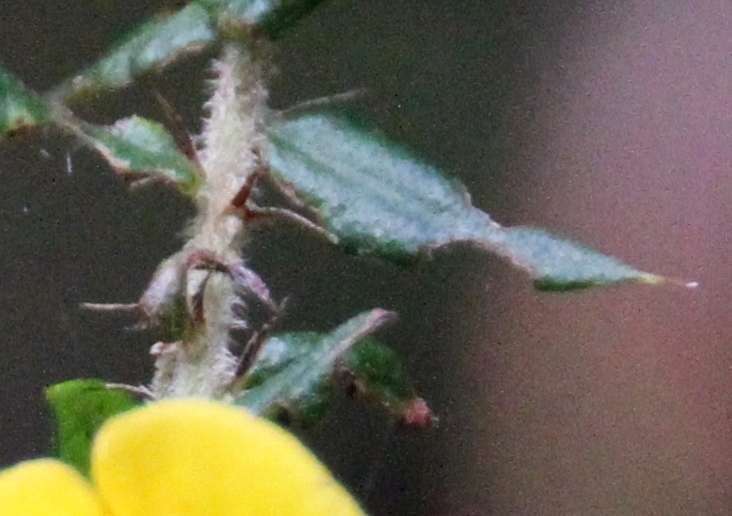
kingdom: Plantae
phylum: Tracheophyta
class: Magnoliopsida
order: Fabales
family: Fabaceae
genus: Bossiaea
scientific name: Bossiaea cinerea
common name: Showy bossiaea
